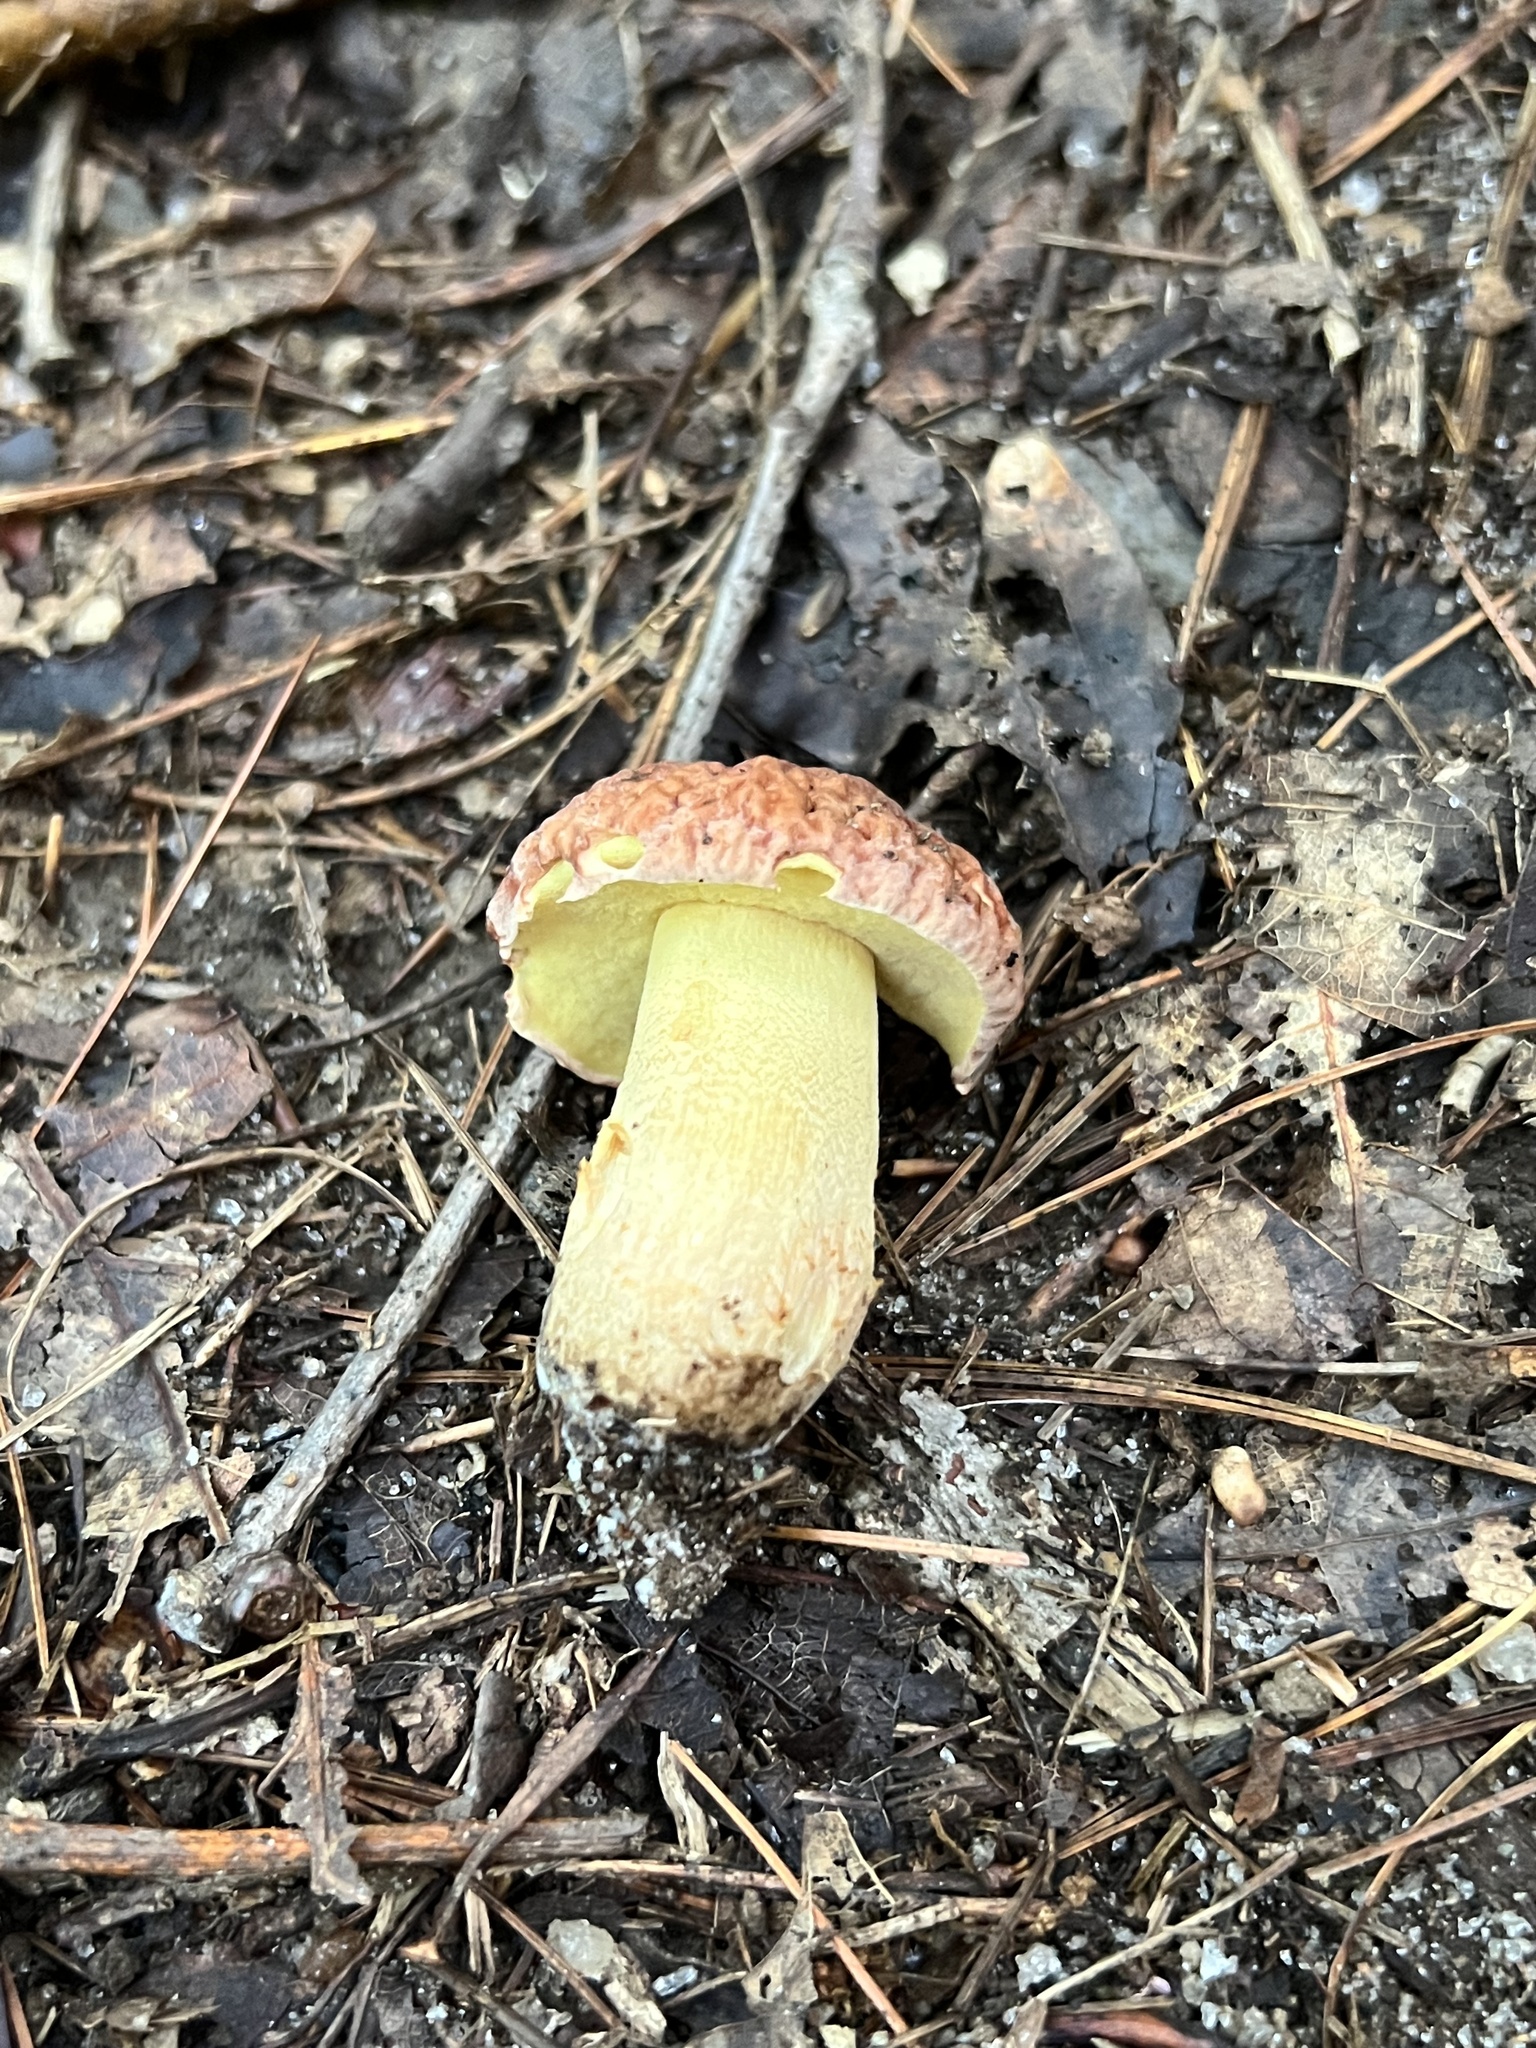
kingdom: Fungi
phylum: Basidiomycota
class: Agaricomycetes
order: Boletales
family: Boletaceae
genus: Hemileccinum
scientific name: Hemileccinum hortonii
